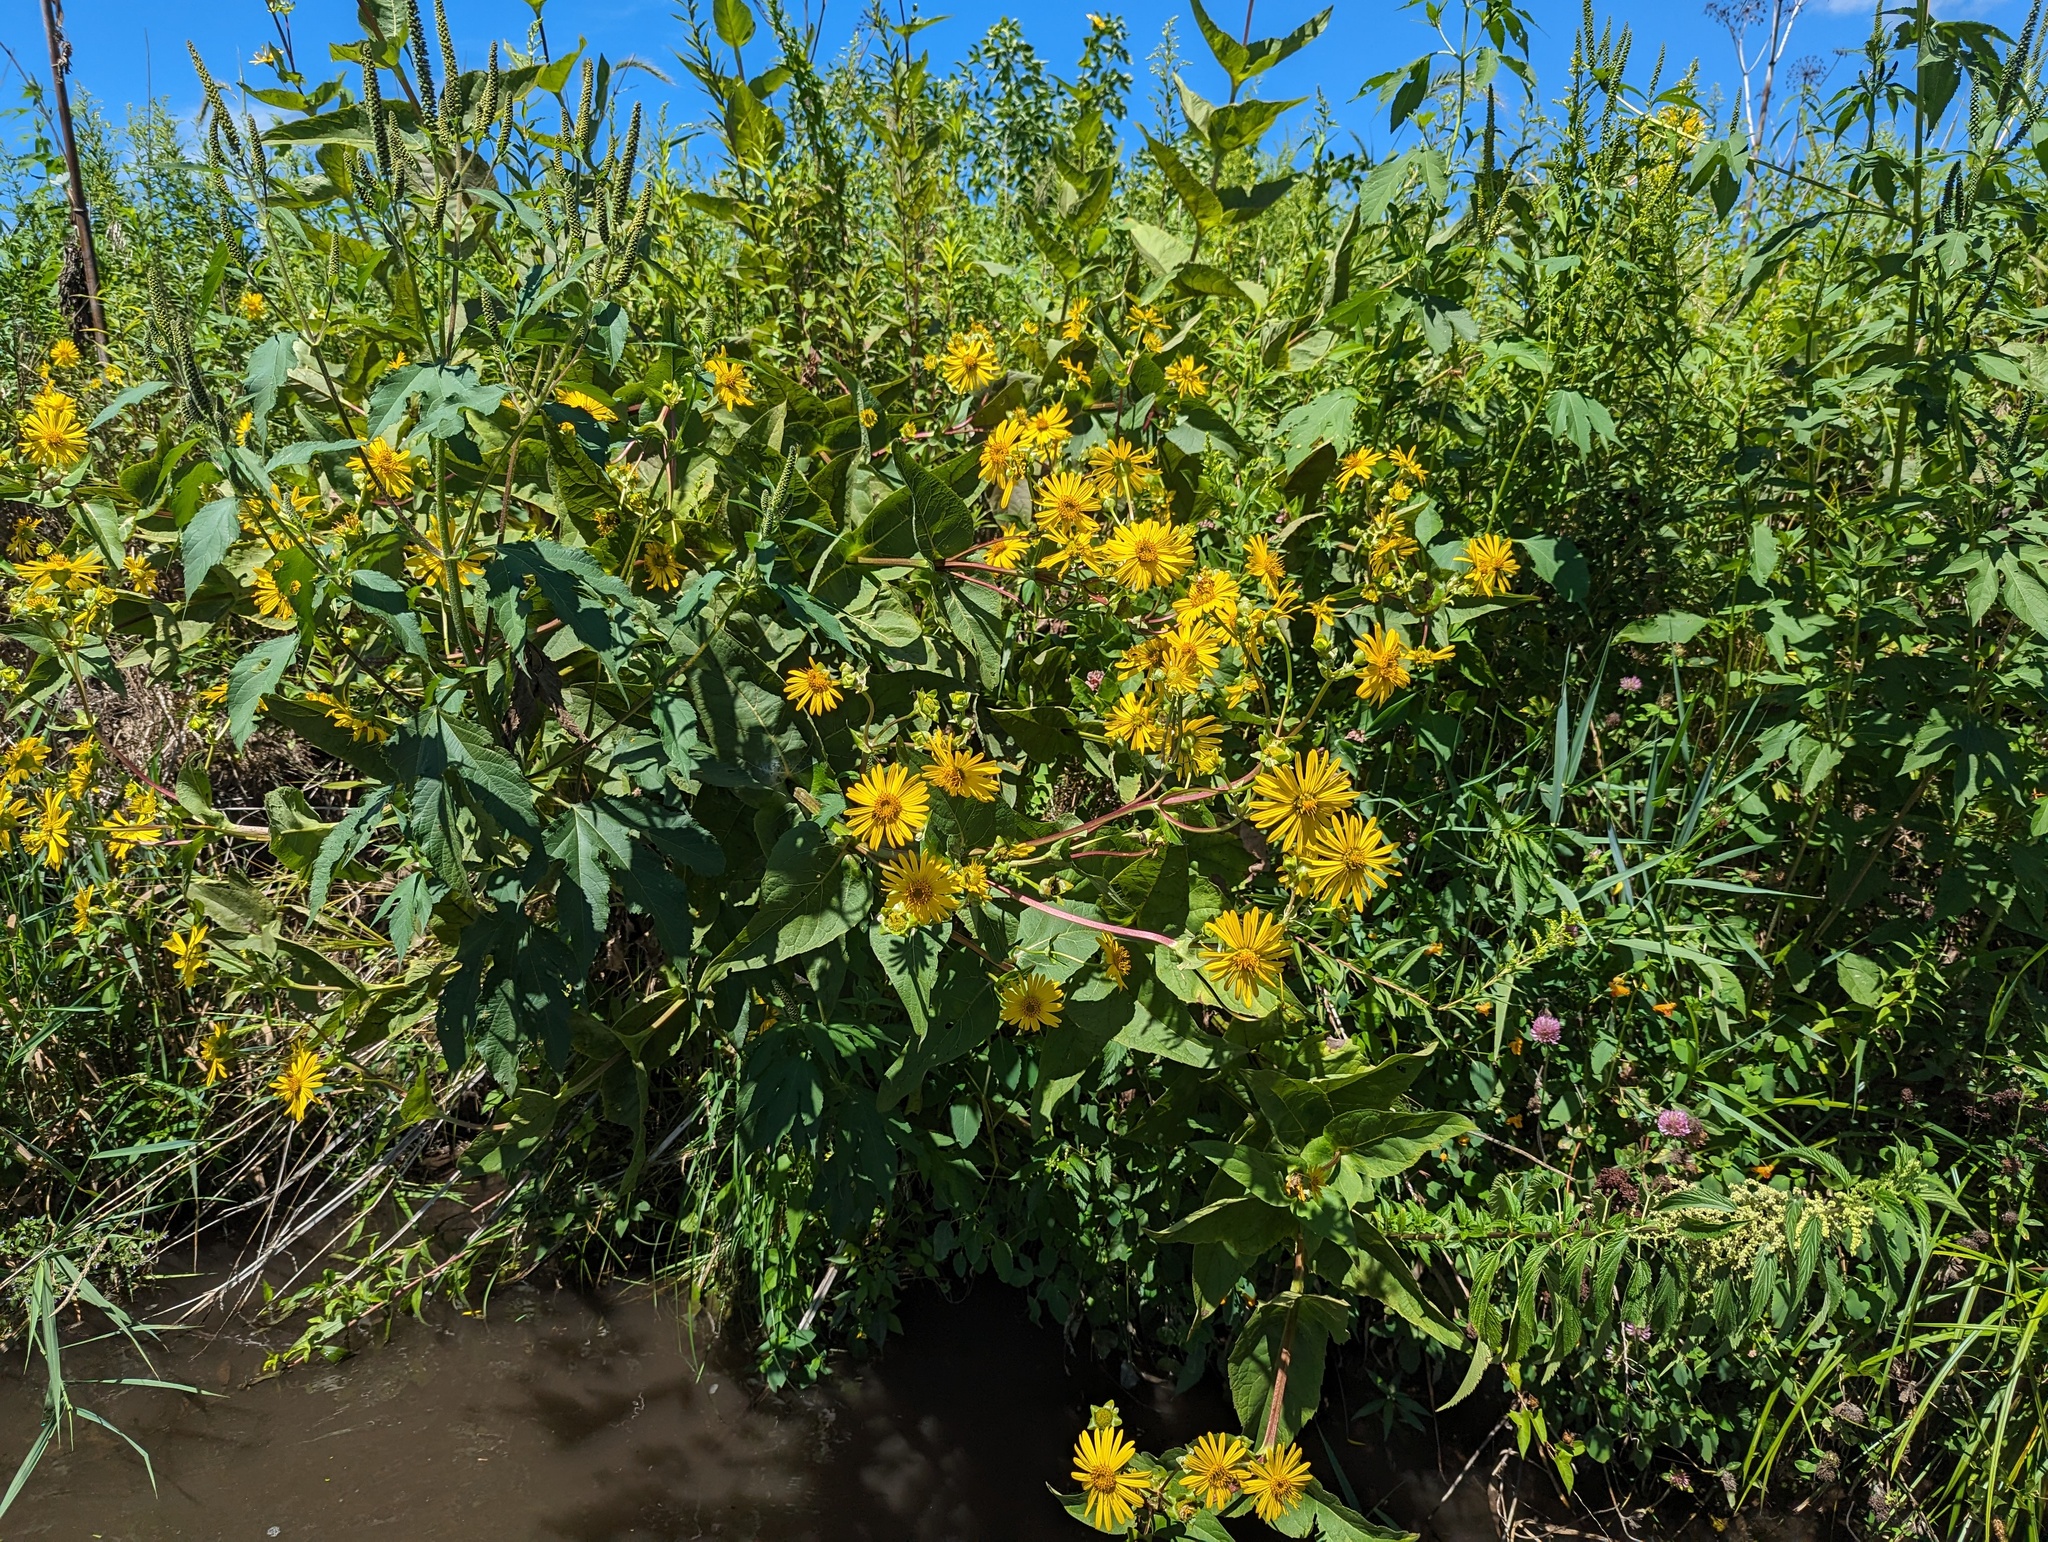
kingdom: Plantae
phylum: Tracheophyta
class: Magnoliopsida
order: Asterales
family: Asteraceae
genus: Silphium
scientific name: Silphium perfoliatum
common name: Cup-plant
